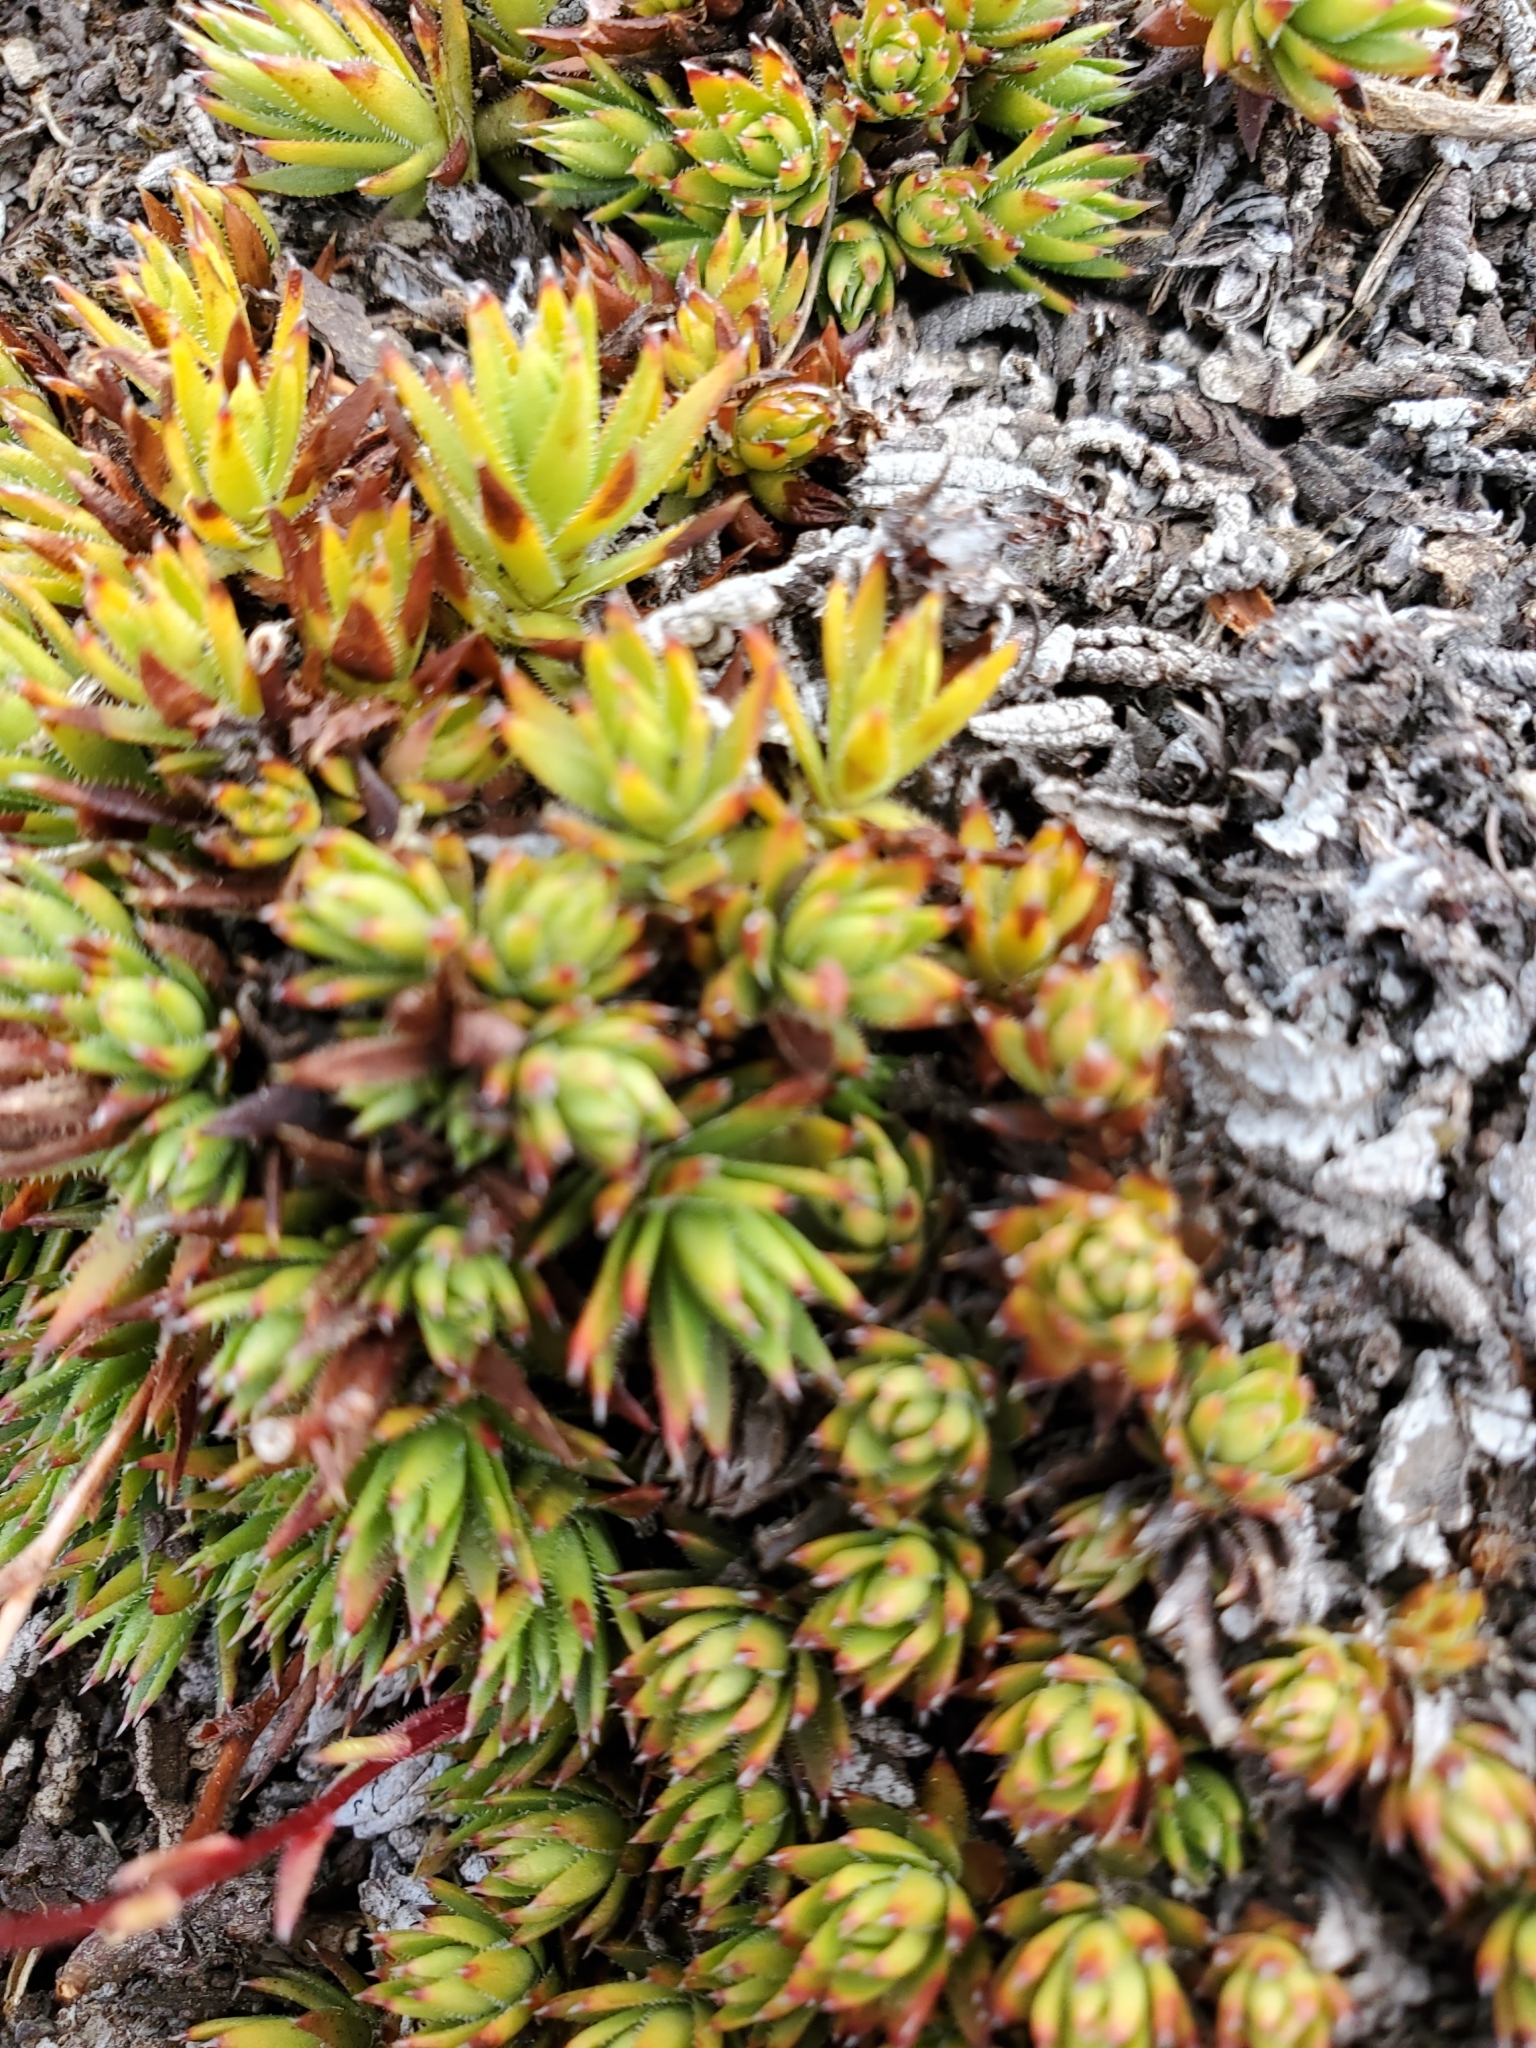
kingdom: Plantae
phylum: Tracheophyta
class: Magnoliopsida
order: Saxifragales
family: Saxifragaceae
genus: Saxifraga
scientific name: Saxifraga bronchialis
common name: Matted saxifrage
